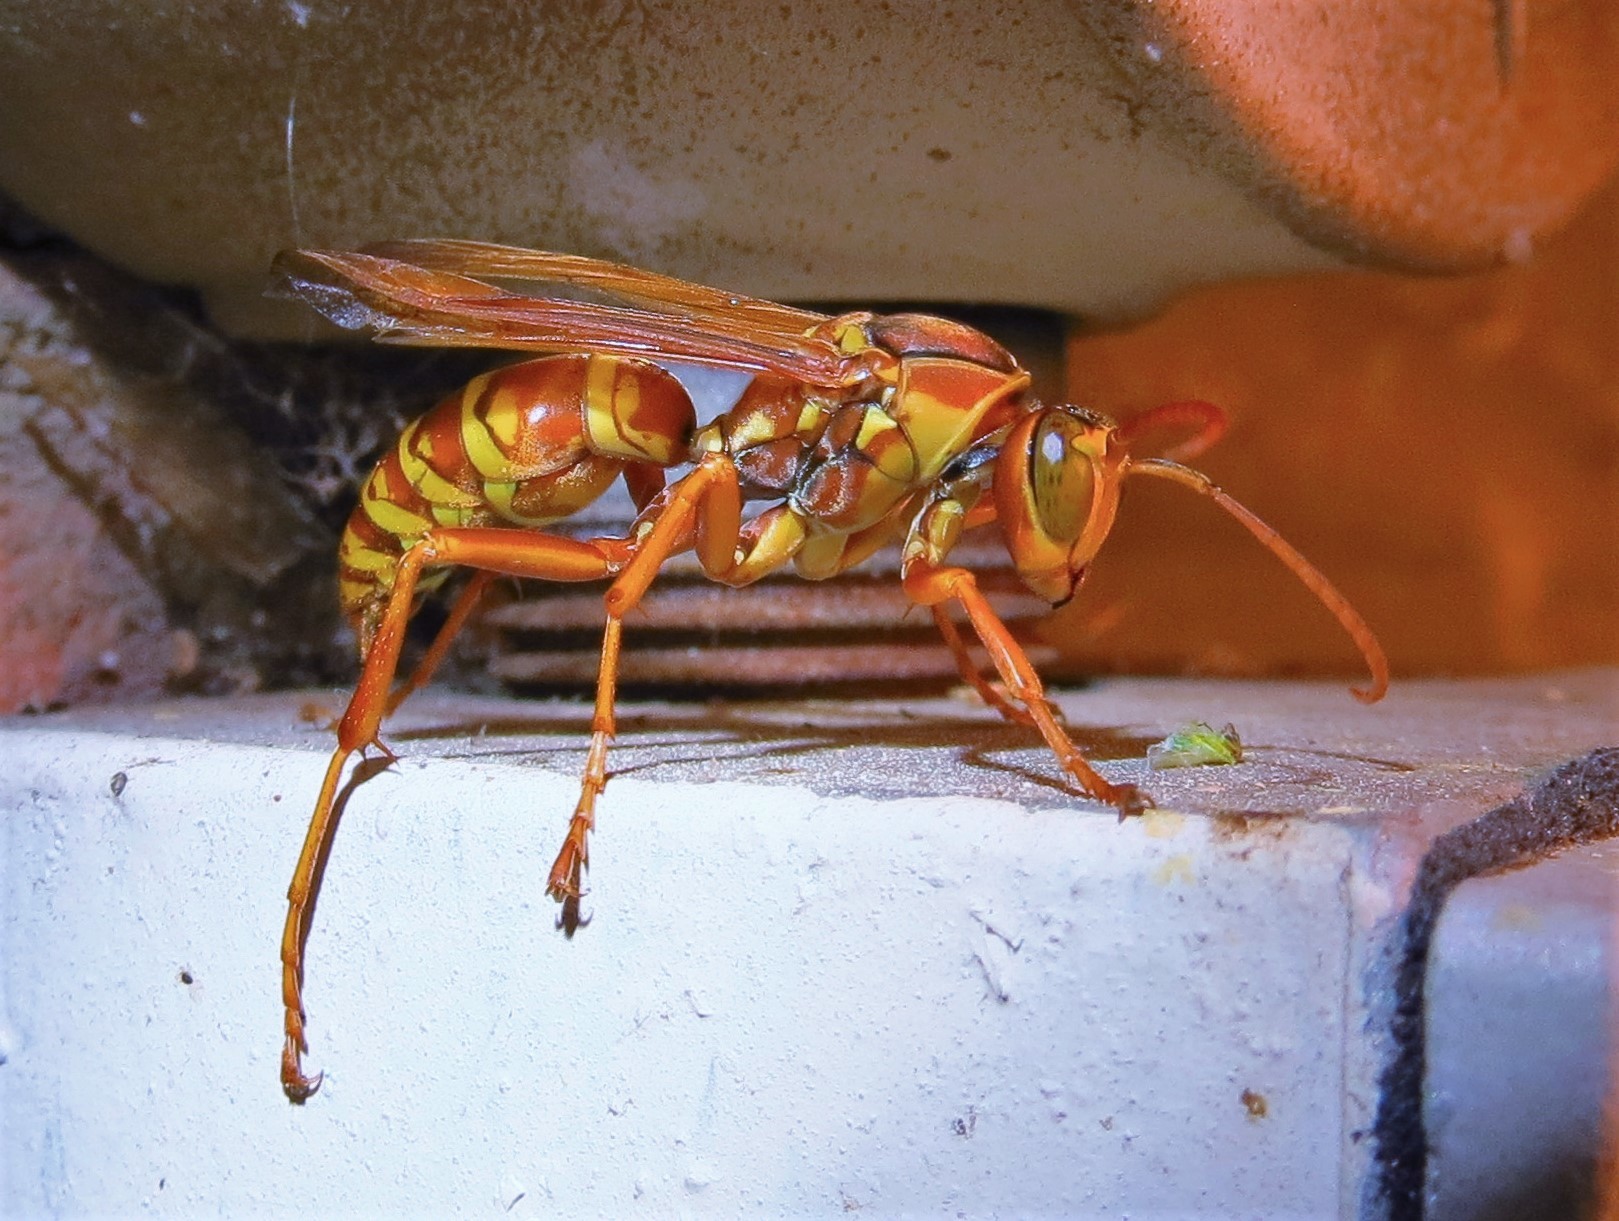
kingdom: Animalia
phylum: Arthropoda
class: Insecta
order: Hymenoptera
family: Eumenidae
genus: Polistes
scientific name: Polistes apachus
